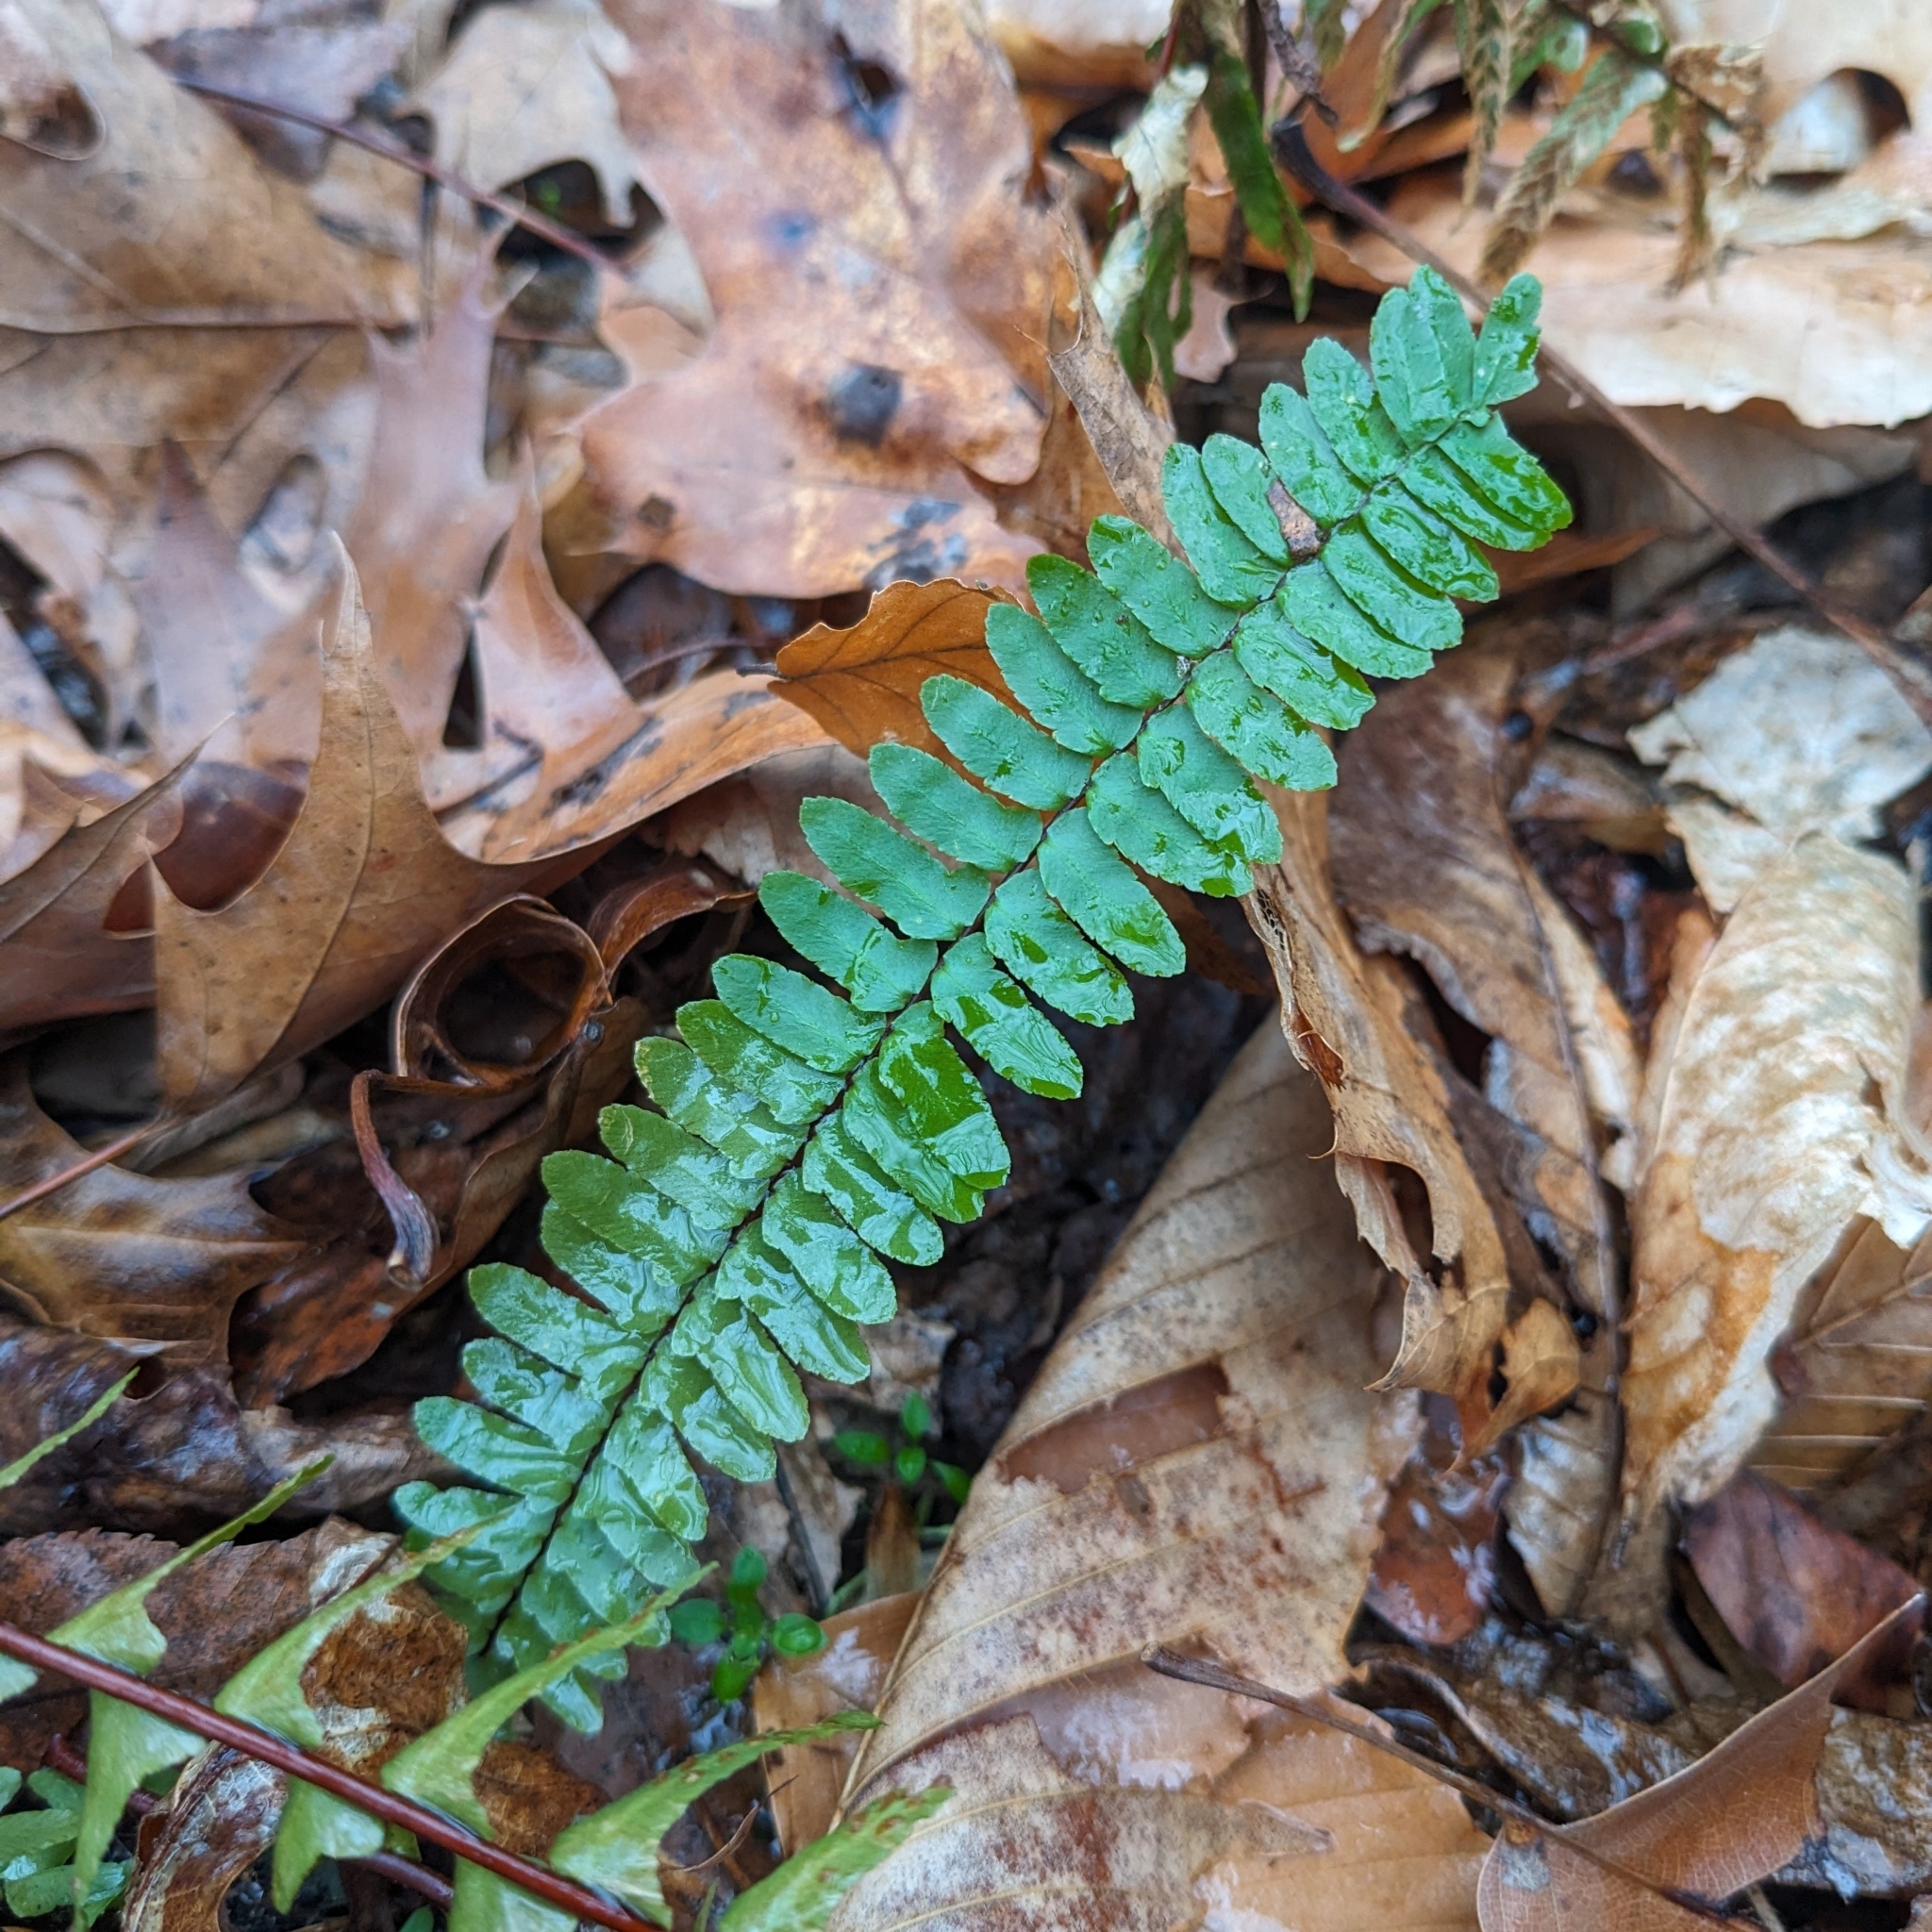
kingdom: Plantae
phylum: Tracheophyta
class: Polypodiopsida
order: Polypodiales
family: Aspleniaceae
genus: Asplenium
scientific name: Asplenium platyneuron
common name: Ebony spleenwort
